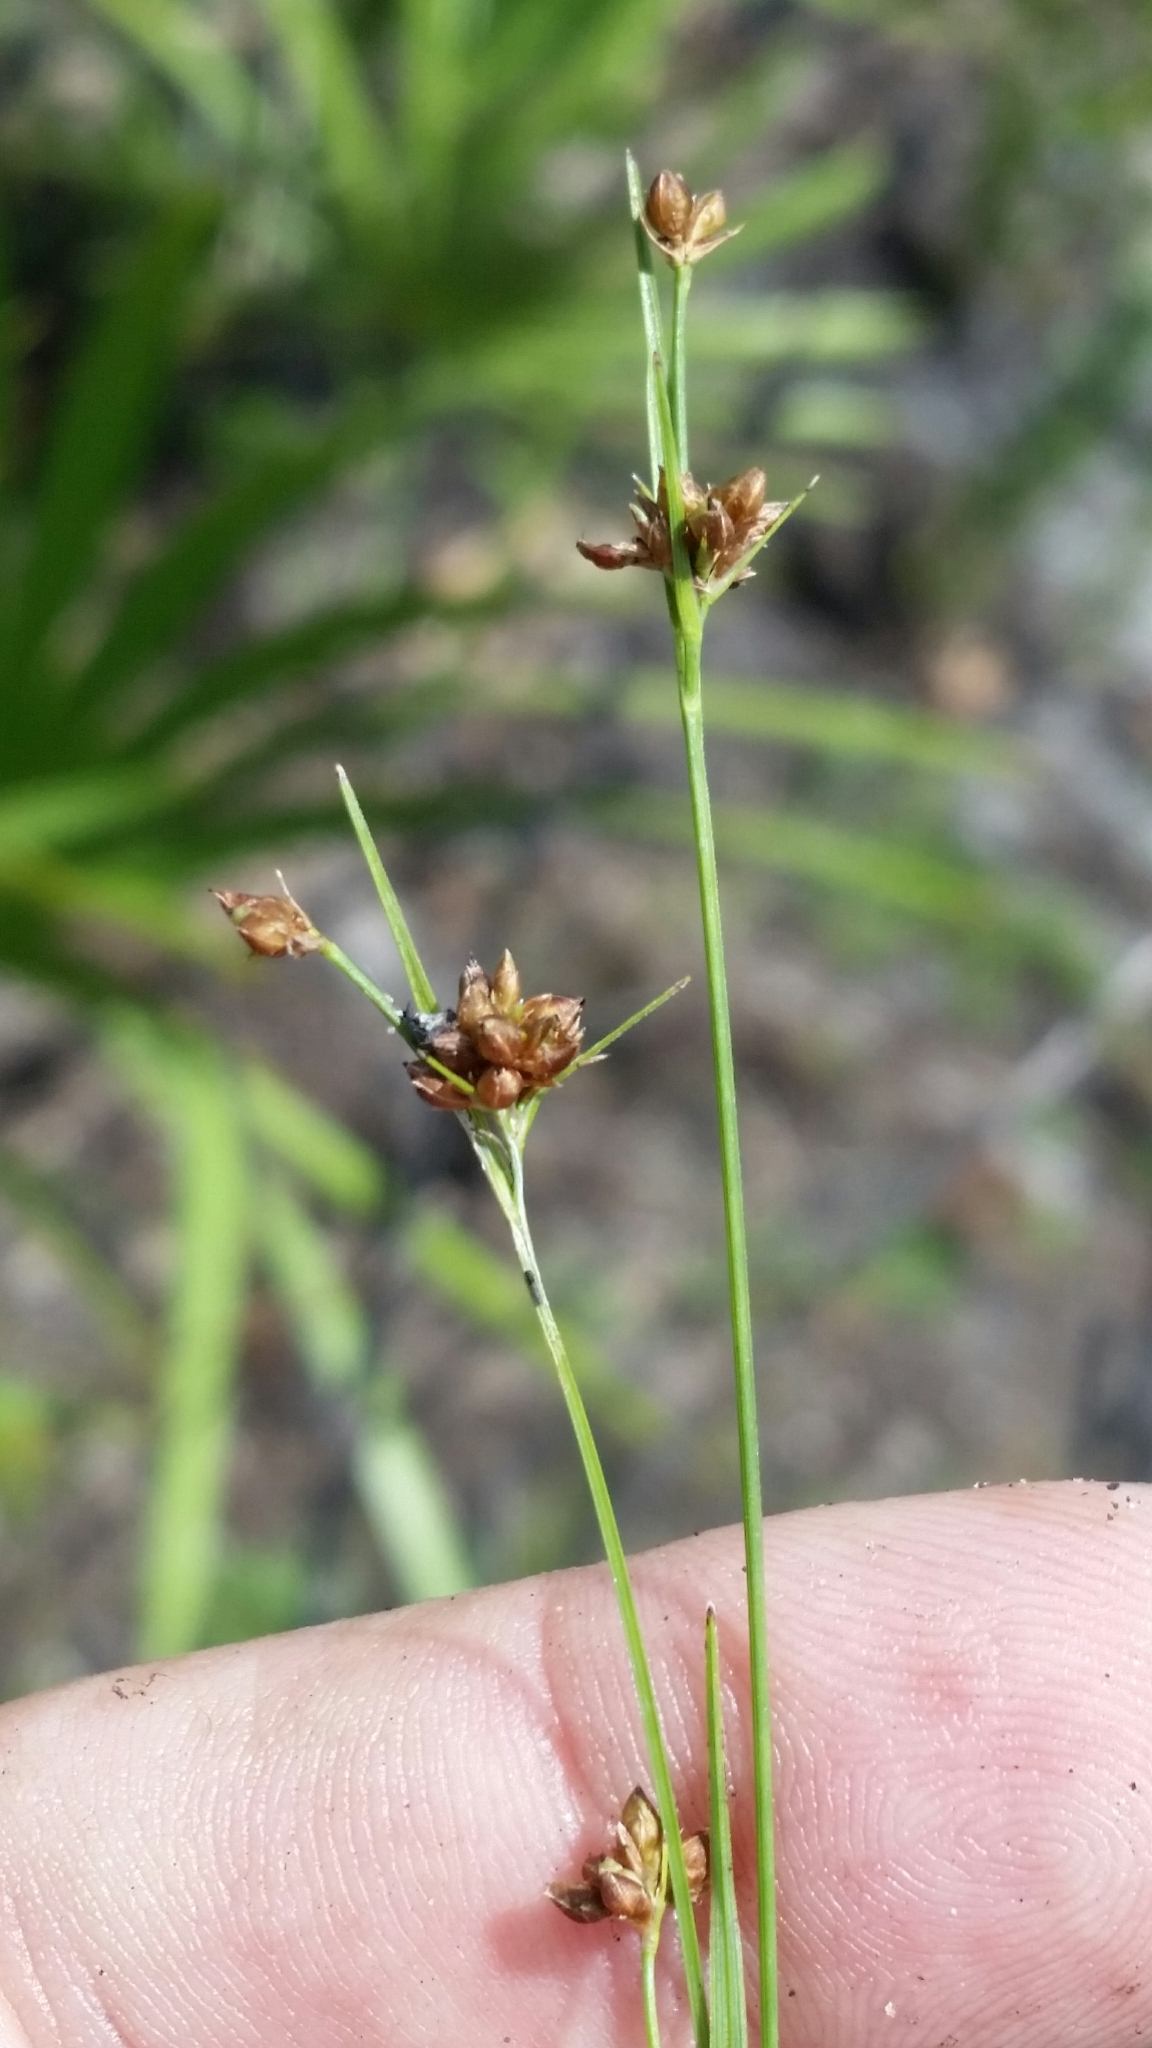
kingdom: Plantae
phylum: Tracheophyta
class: Liliopsida
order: Poales
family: Cyperaceae
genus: Rhynchospora
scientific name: Rhynchospora globularis
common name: Globe beaksedge
